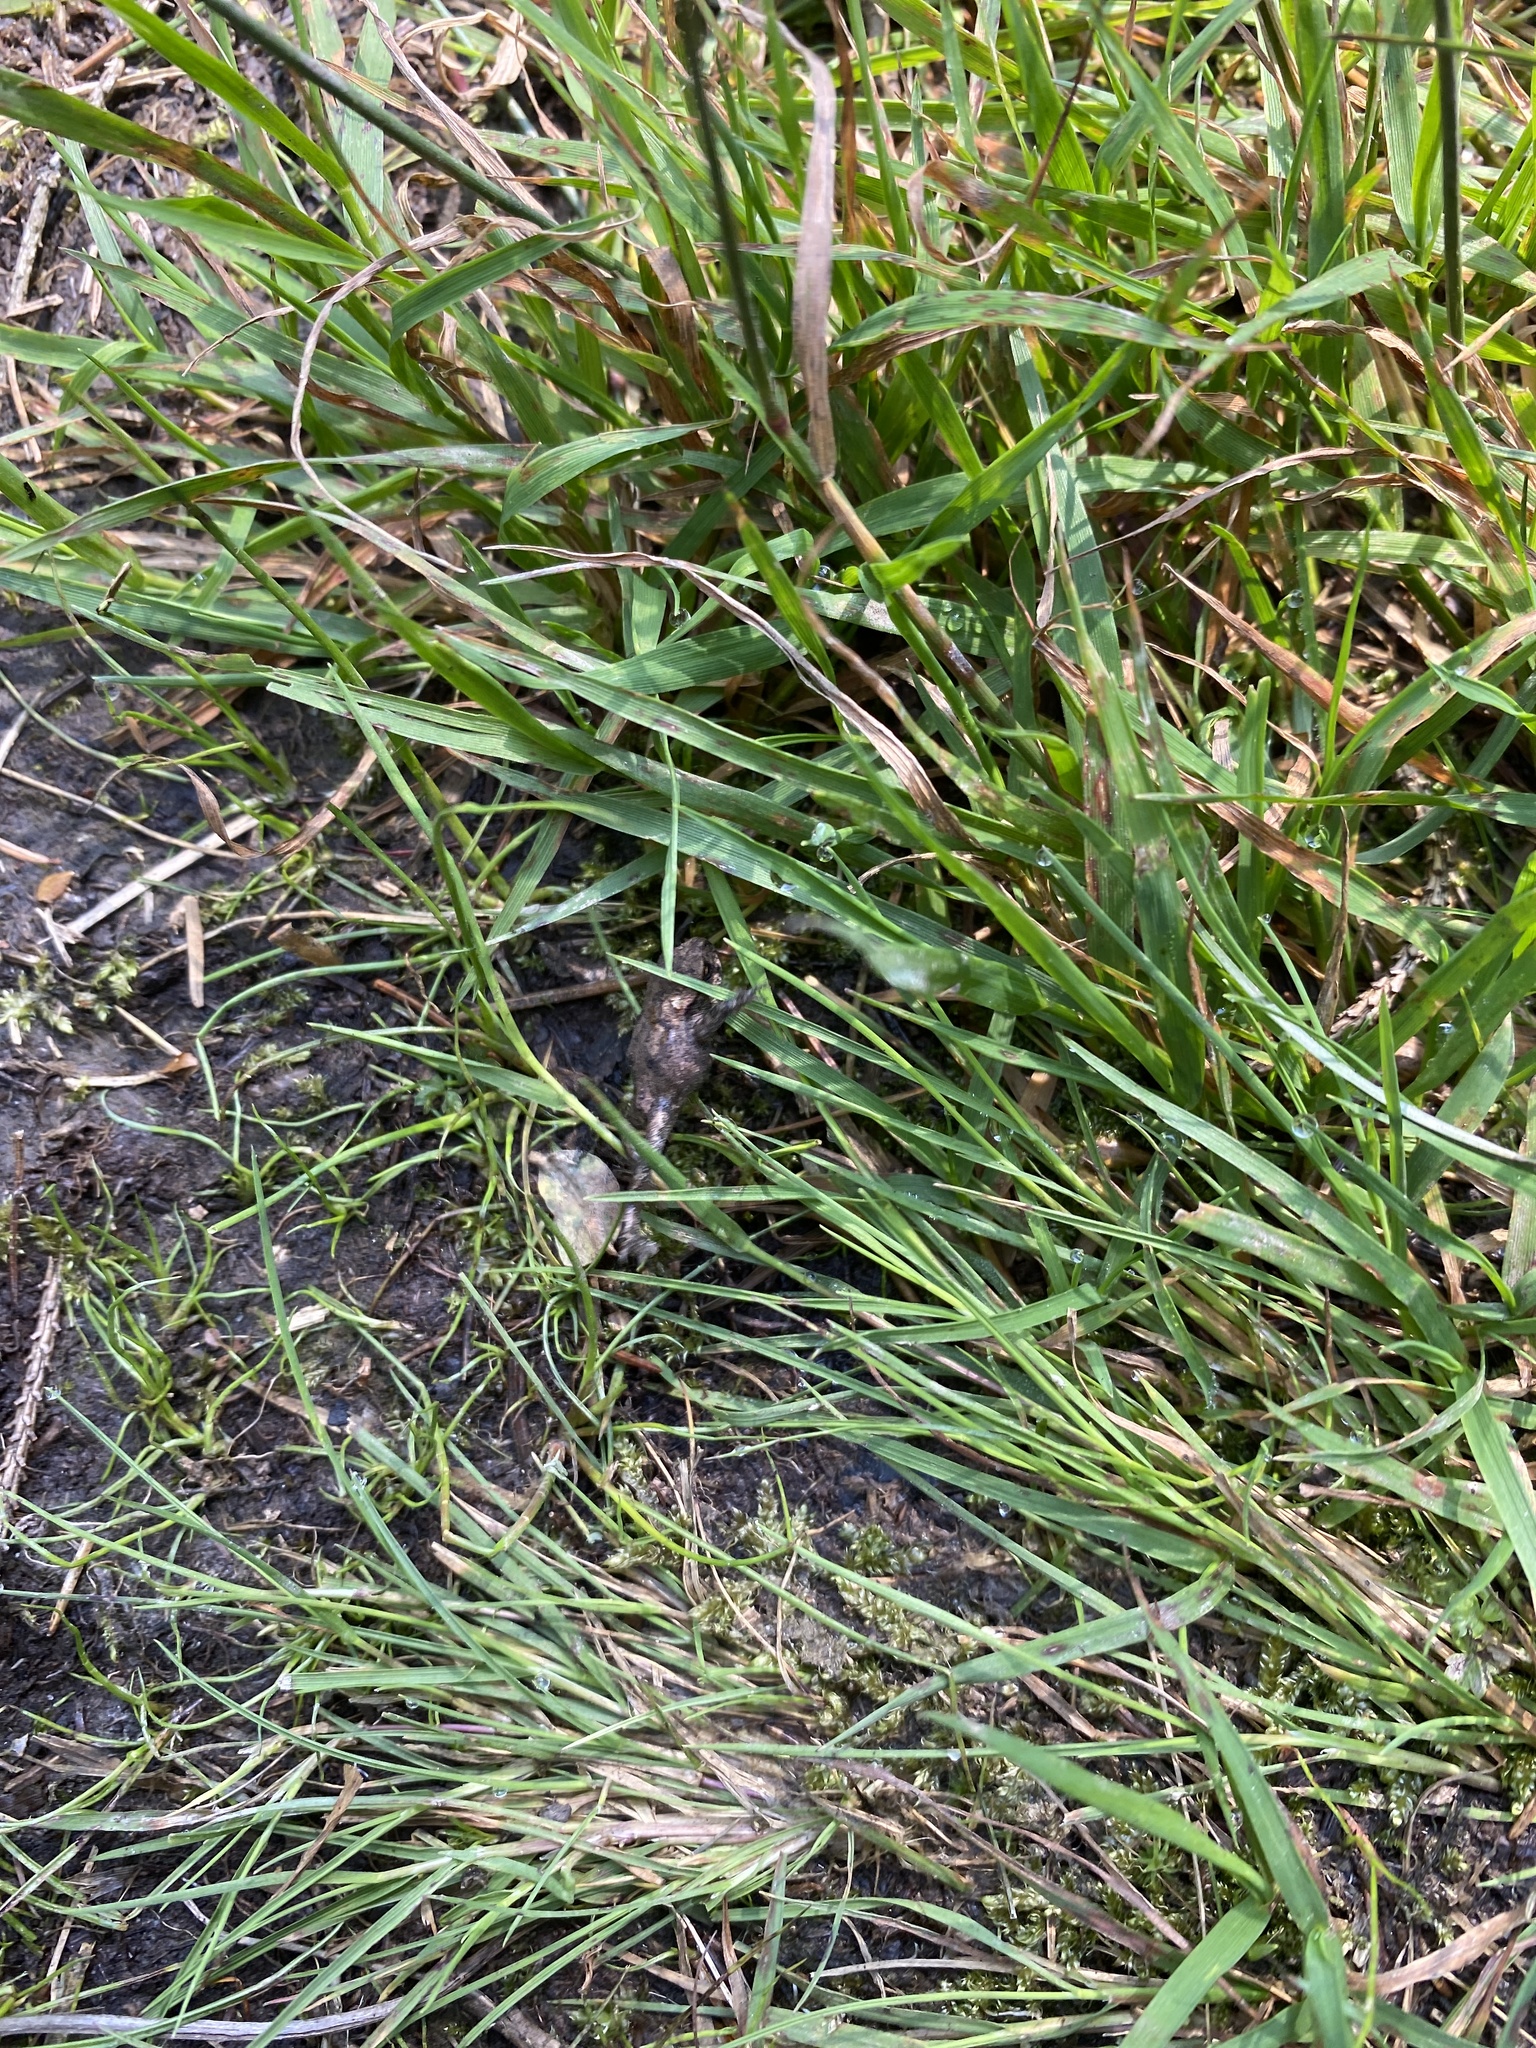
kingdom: Animalia
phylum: Chordata
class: Amphibia
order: Anura
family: Bufonidae
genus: Bufo
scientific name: Bufo bufo
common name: Common toad
